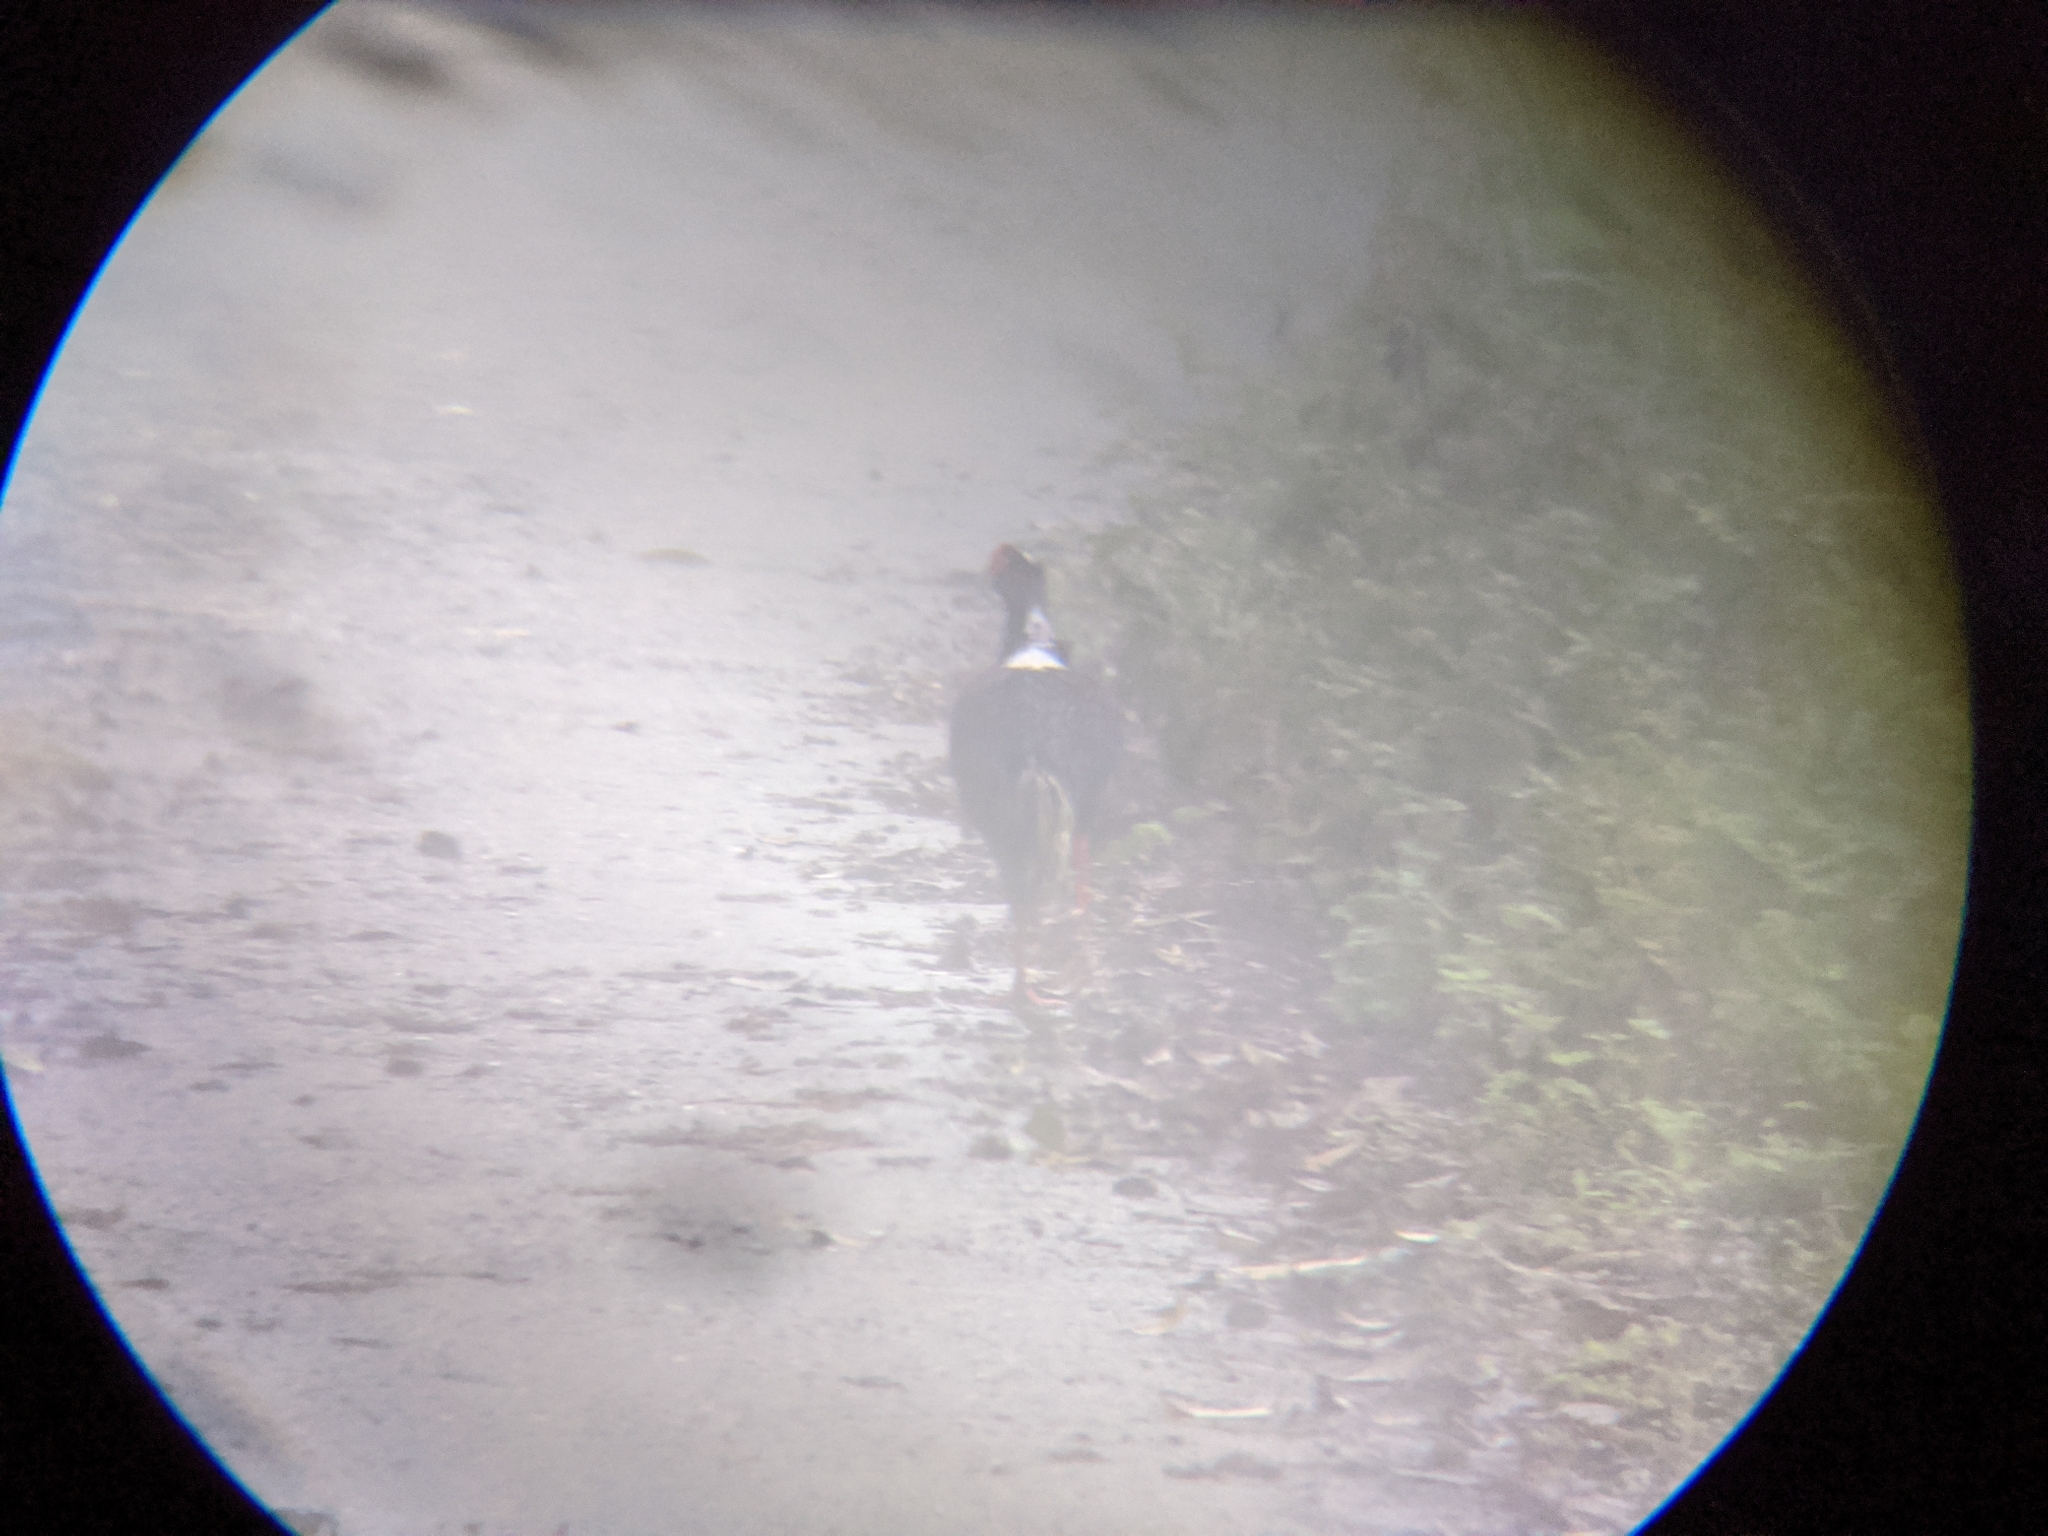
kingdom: Animalia
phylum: Chordata
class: Aves
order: Galliformes
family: Phasianidae
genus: Lophura
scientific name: Lophura swinhoii
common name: Swinhoe's pheasant
